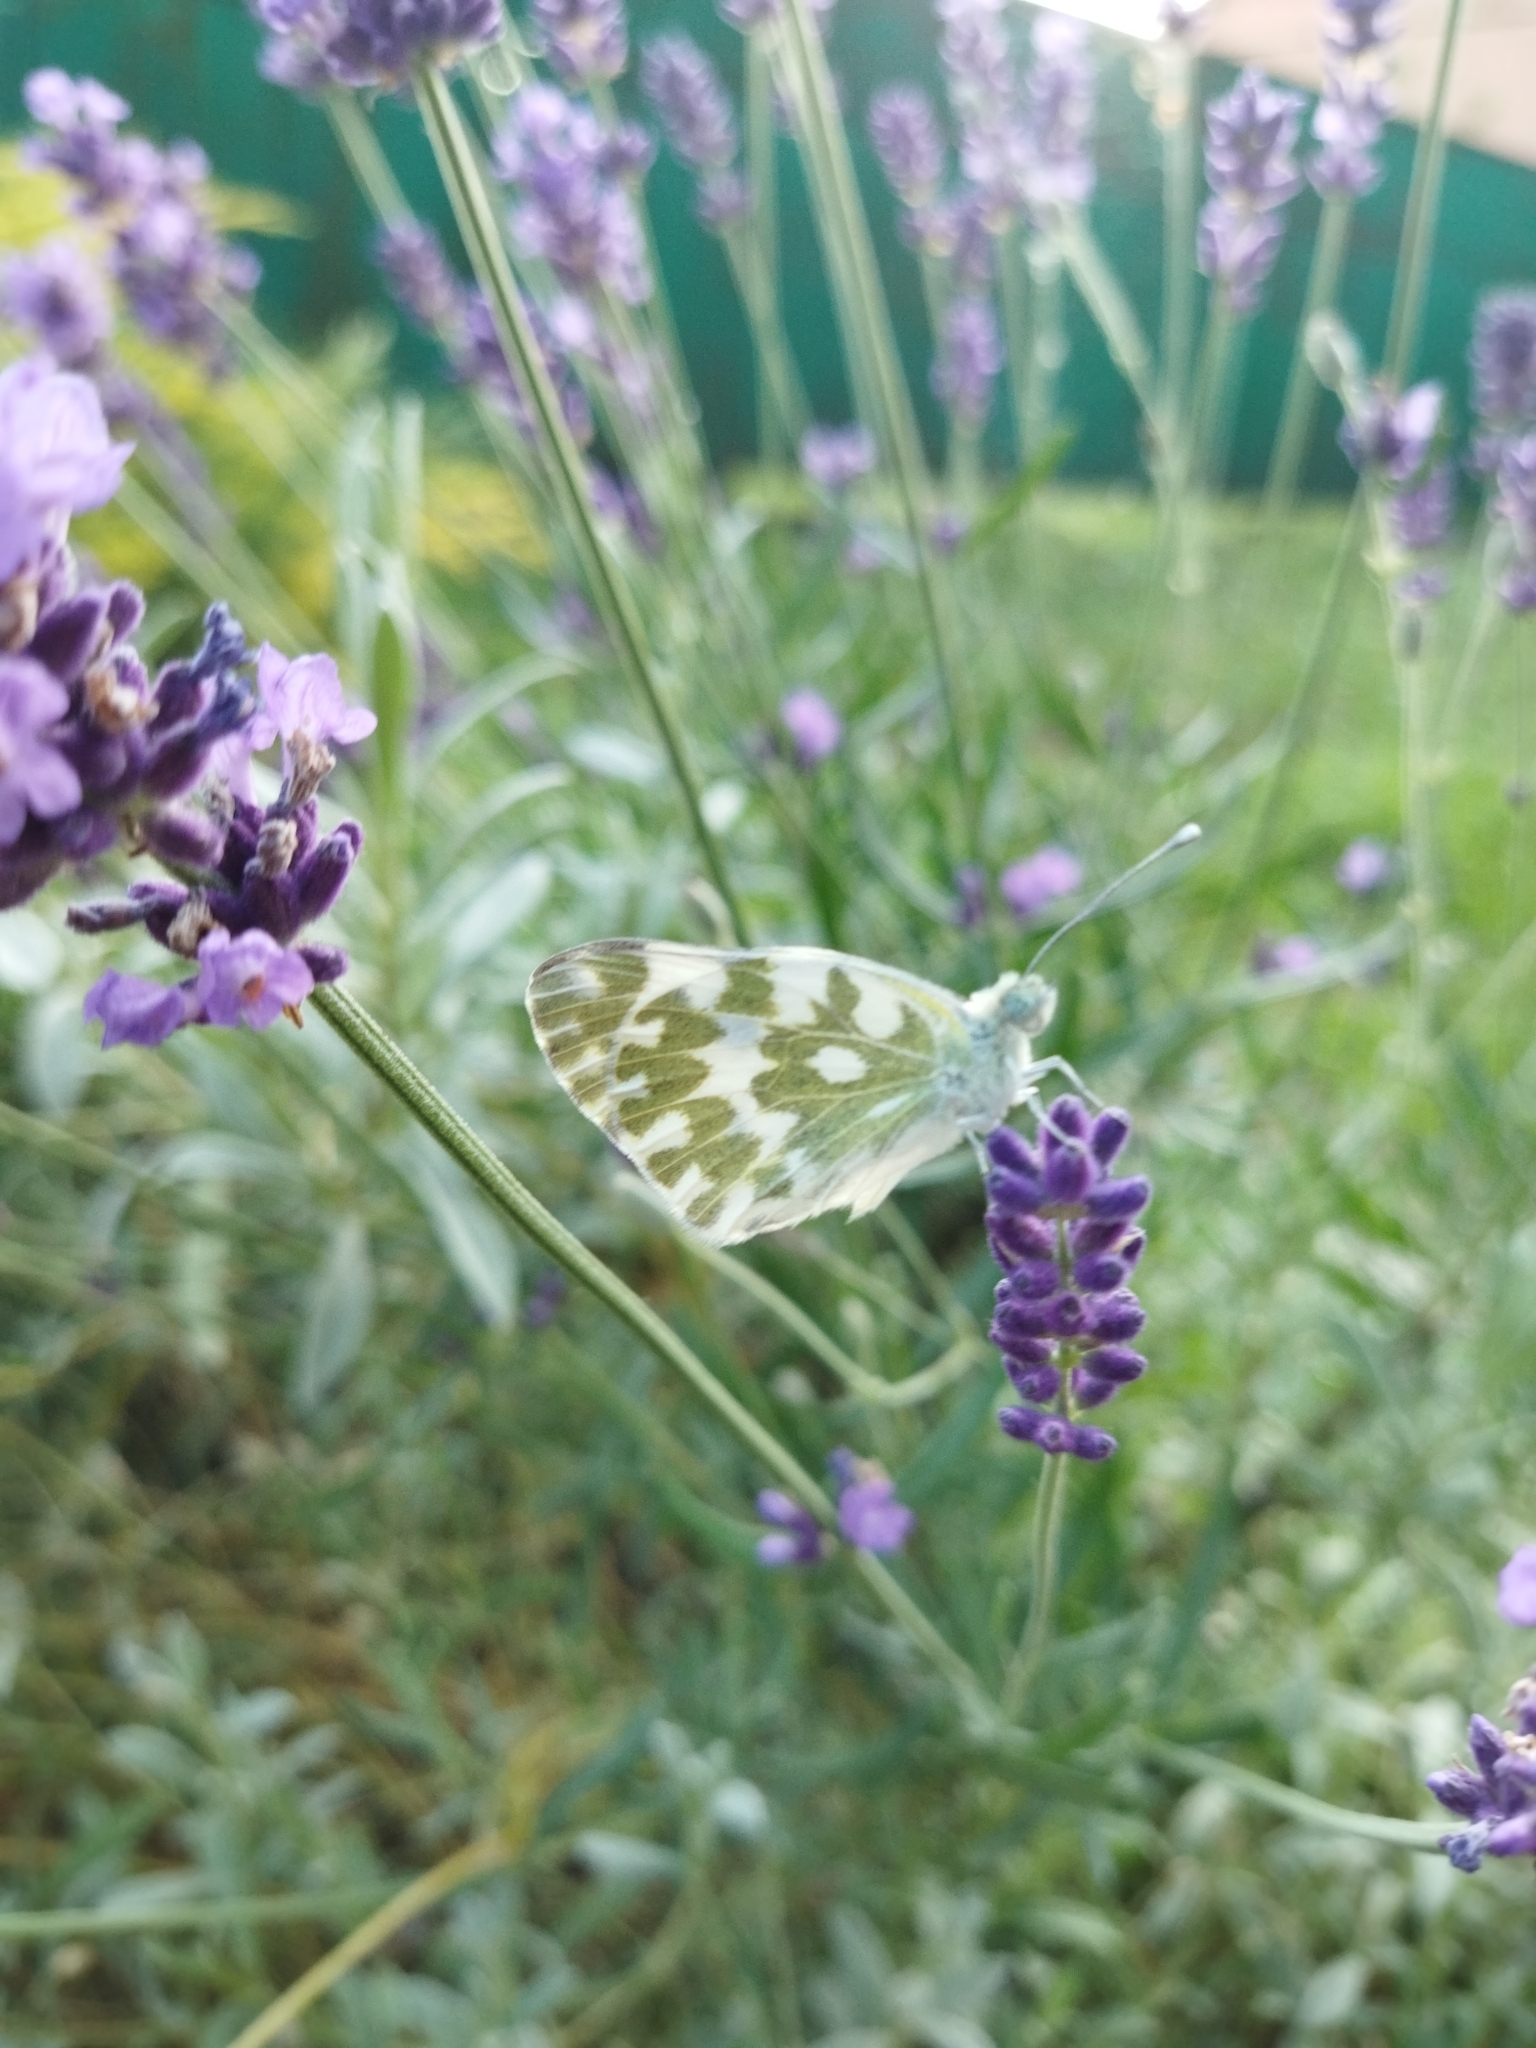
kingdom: Animalia
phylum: Arthropoda
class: Insecta
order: Lepidoptera
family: Pieridae
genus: Pontia
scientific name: Pontia edusa
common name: Eastern bath white
